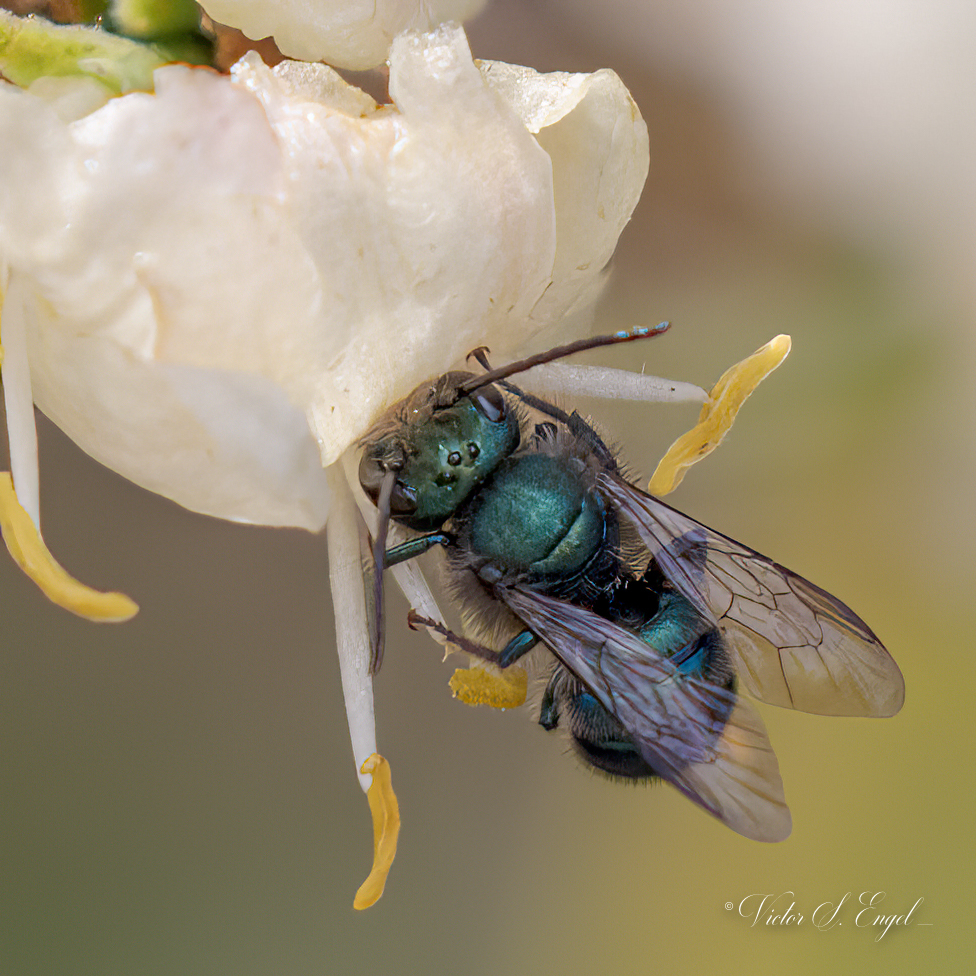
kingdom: Animalia
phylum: Arthropoda
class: Insecta
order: Hymenoptera
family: Megachilidae
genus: Osmia
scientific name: Osmia ribifloris
